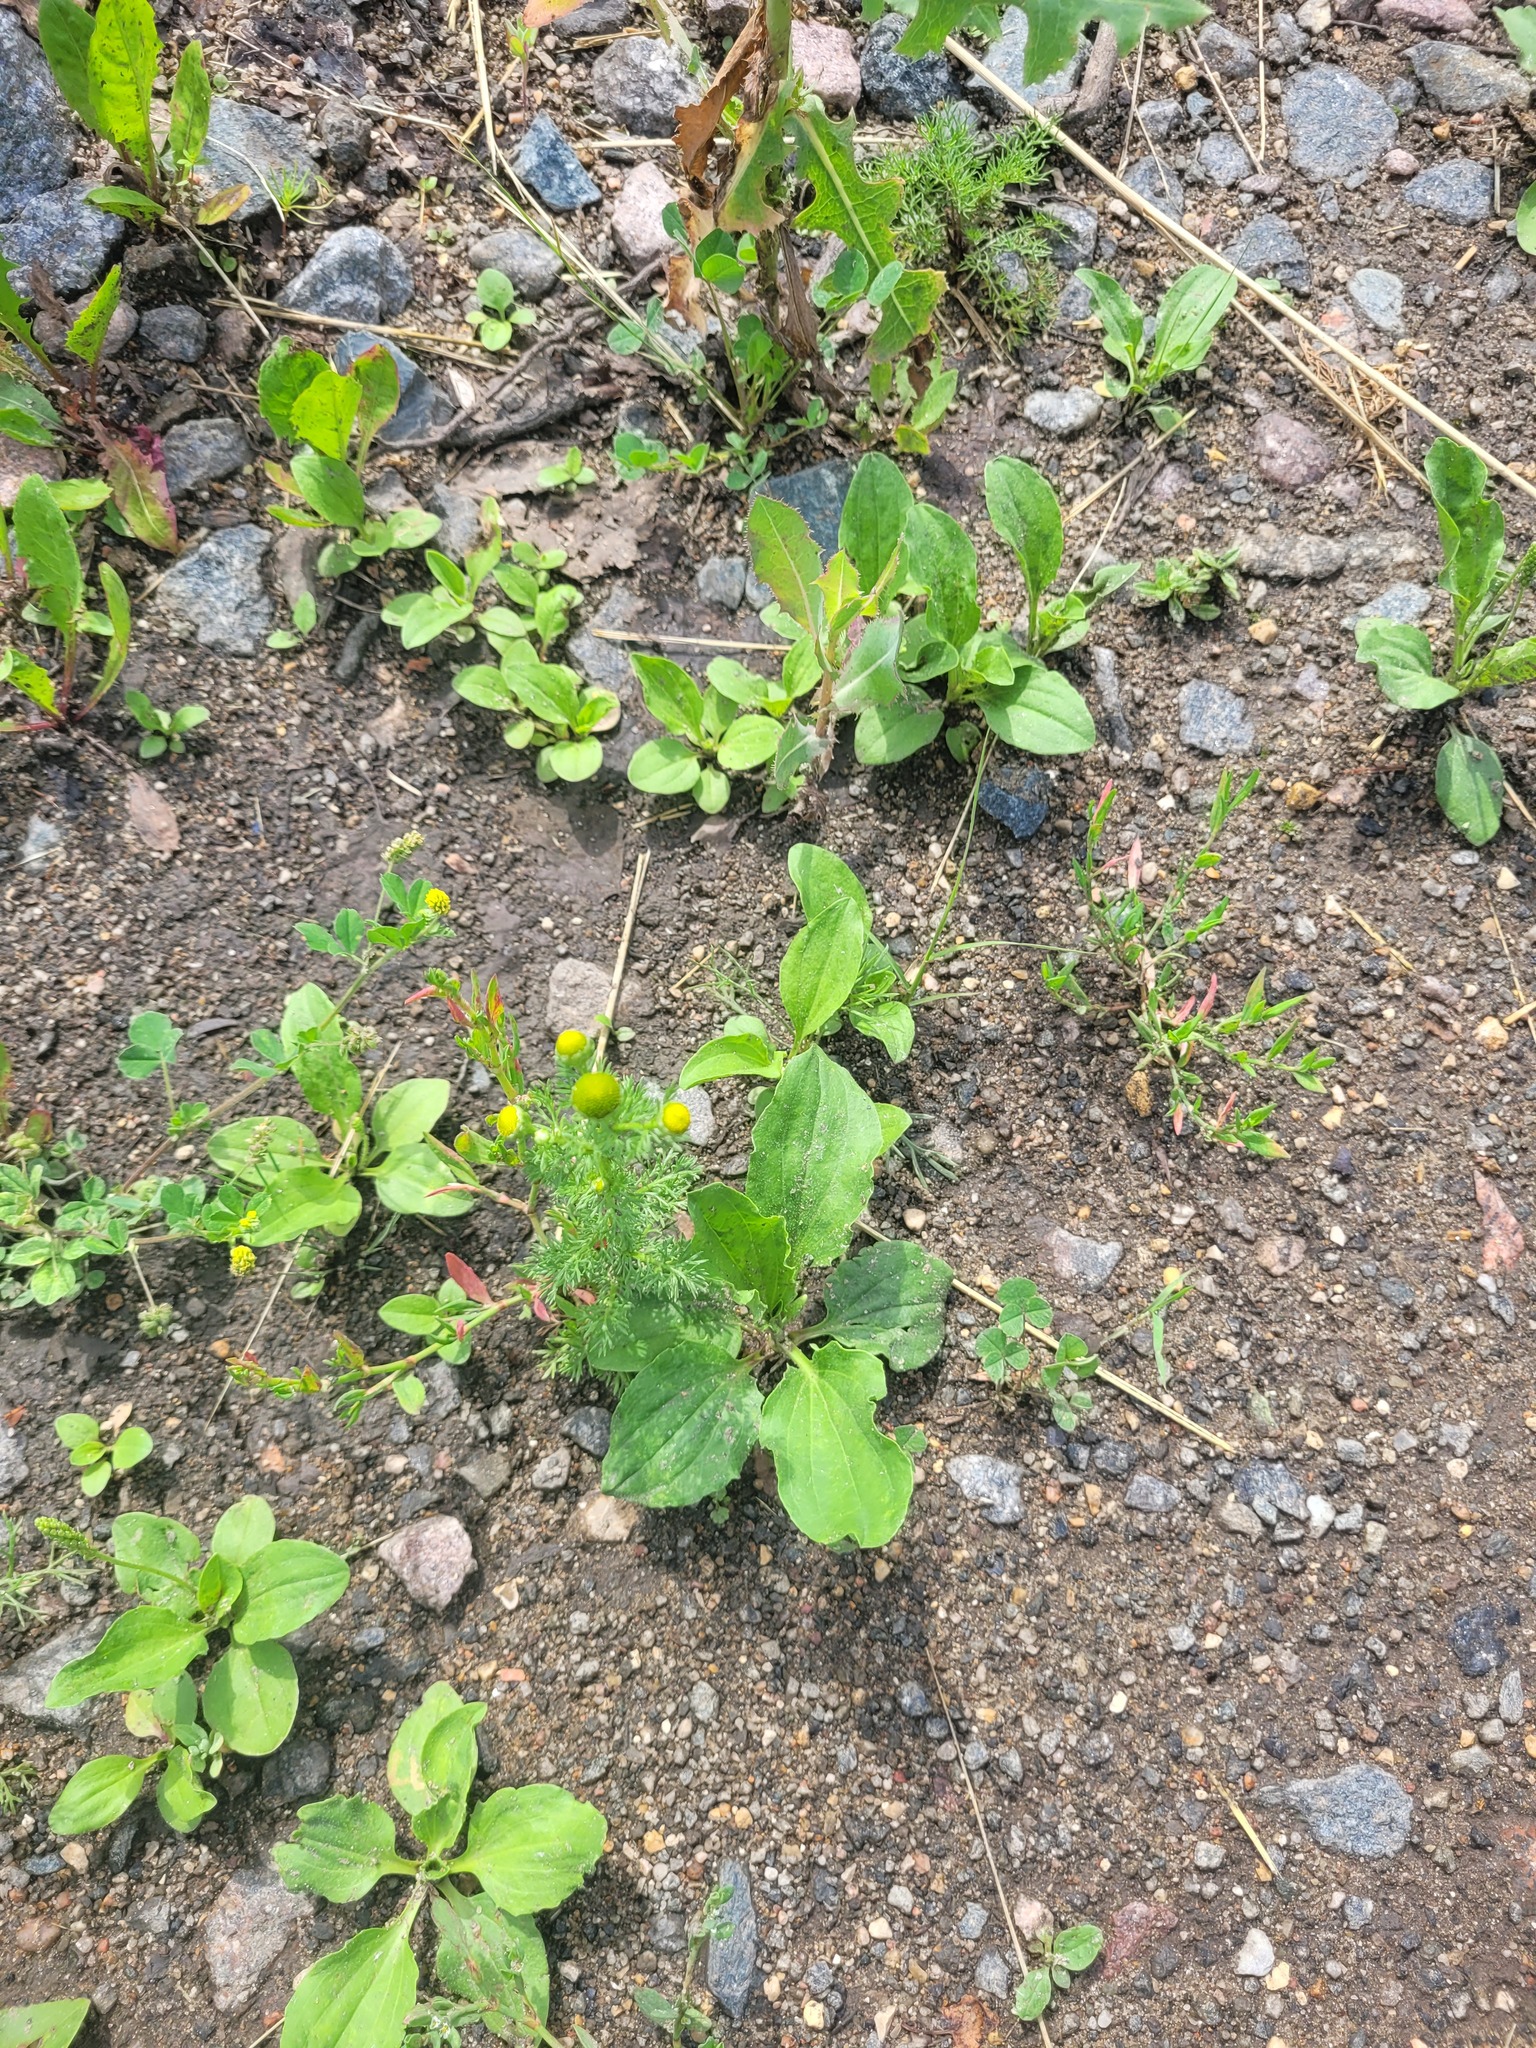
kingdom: Plantae
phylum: Tracheophyta
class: Magnoliopsida
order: Asterales
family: Asteraceae
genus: Matricaria
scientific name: Matricaria discoidea
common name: Disc mayweed
